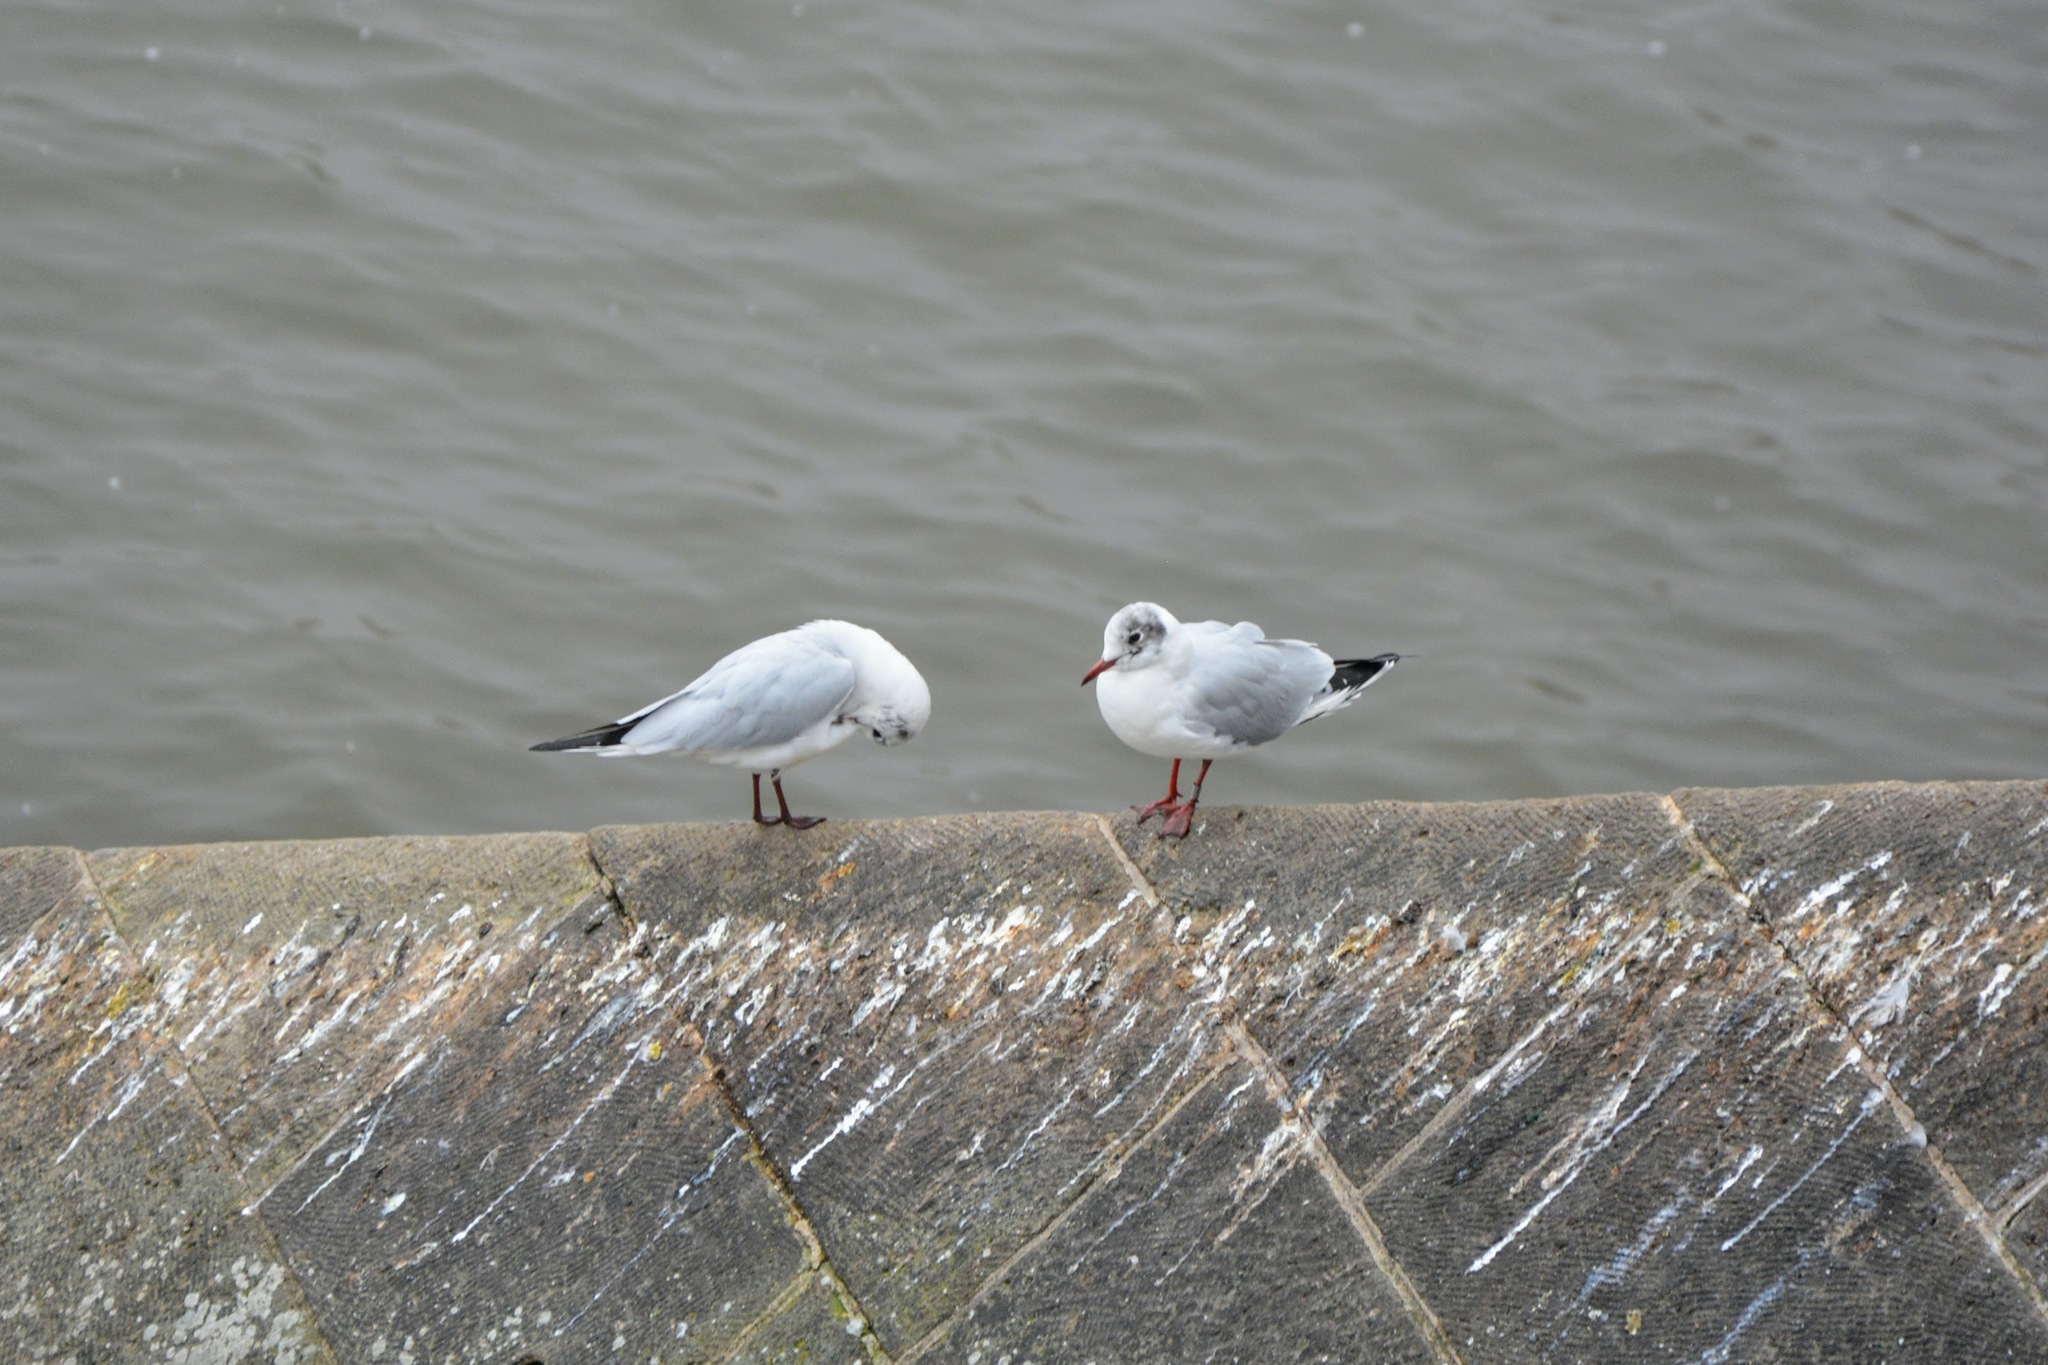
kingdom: Animalia
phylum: Chordata
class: Aves
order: Charadriiformes
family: Laridae
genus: Chroicocephalus
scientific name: Chroicocephalus ridibundus
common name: Black-headed gull
